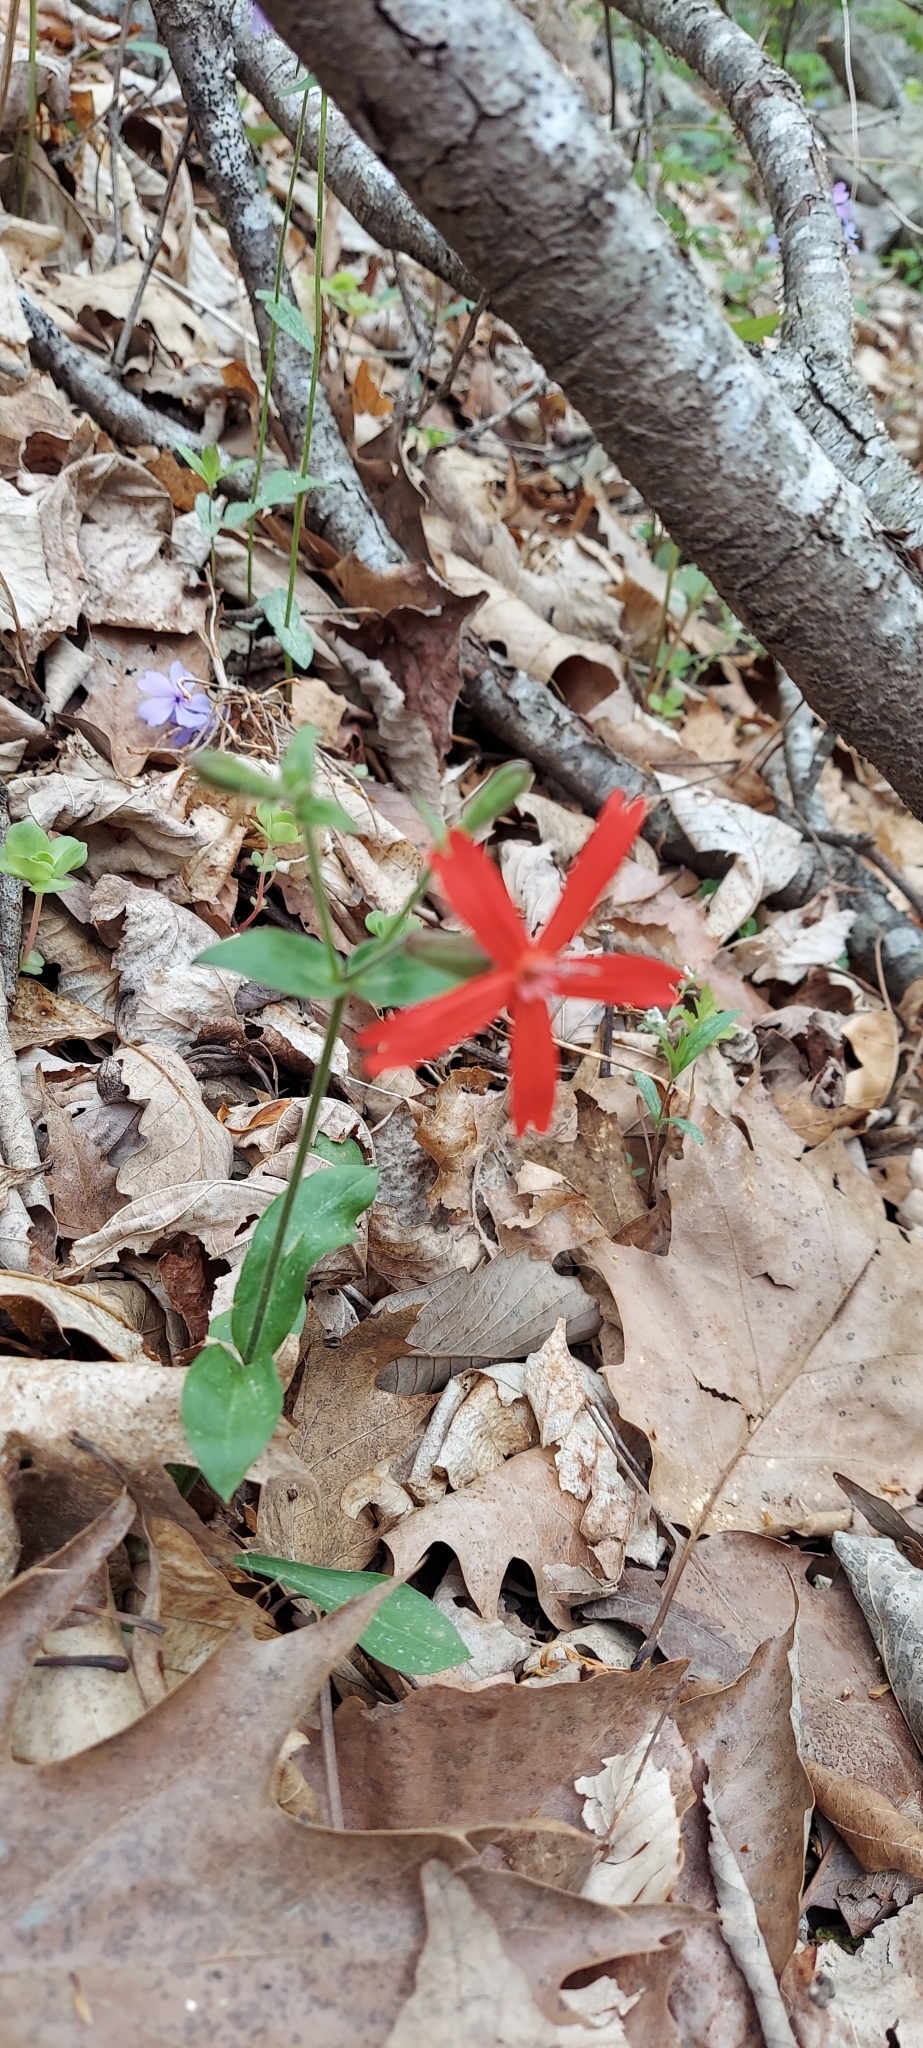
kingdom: Plantae
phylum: Tracheophyta
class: Magnoliopsida
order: Caryophyllales
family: Caryophyllaceae
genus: Silene
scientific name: Silene virginica
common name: Fire-pink
